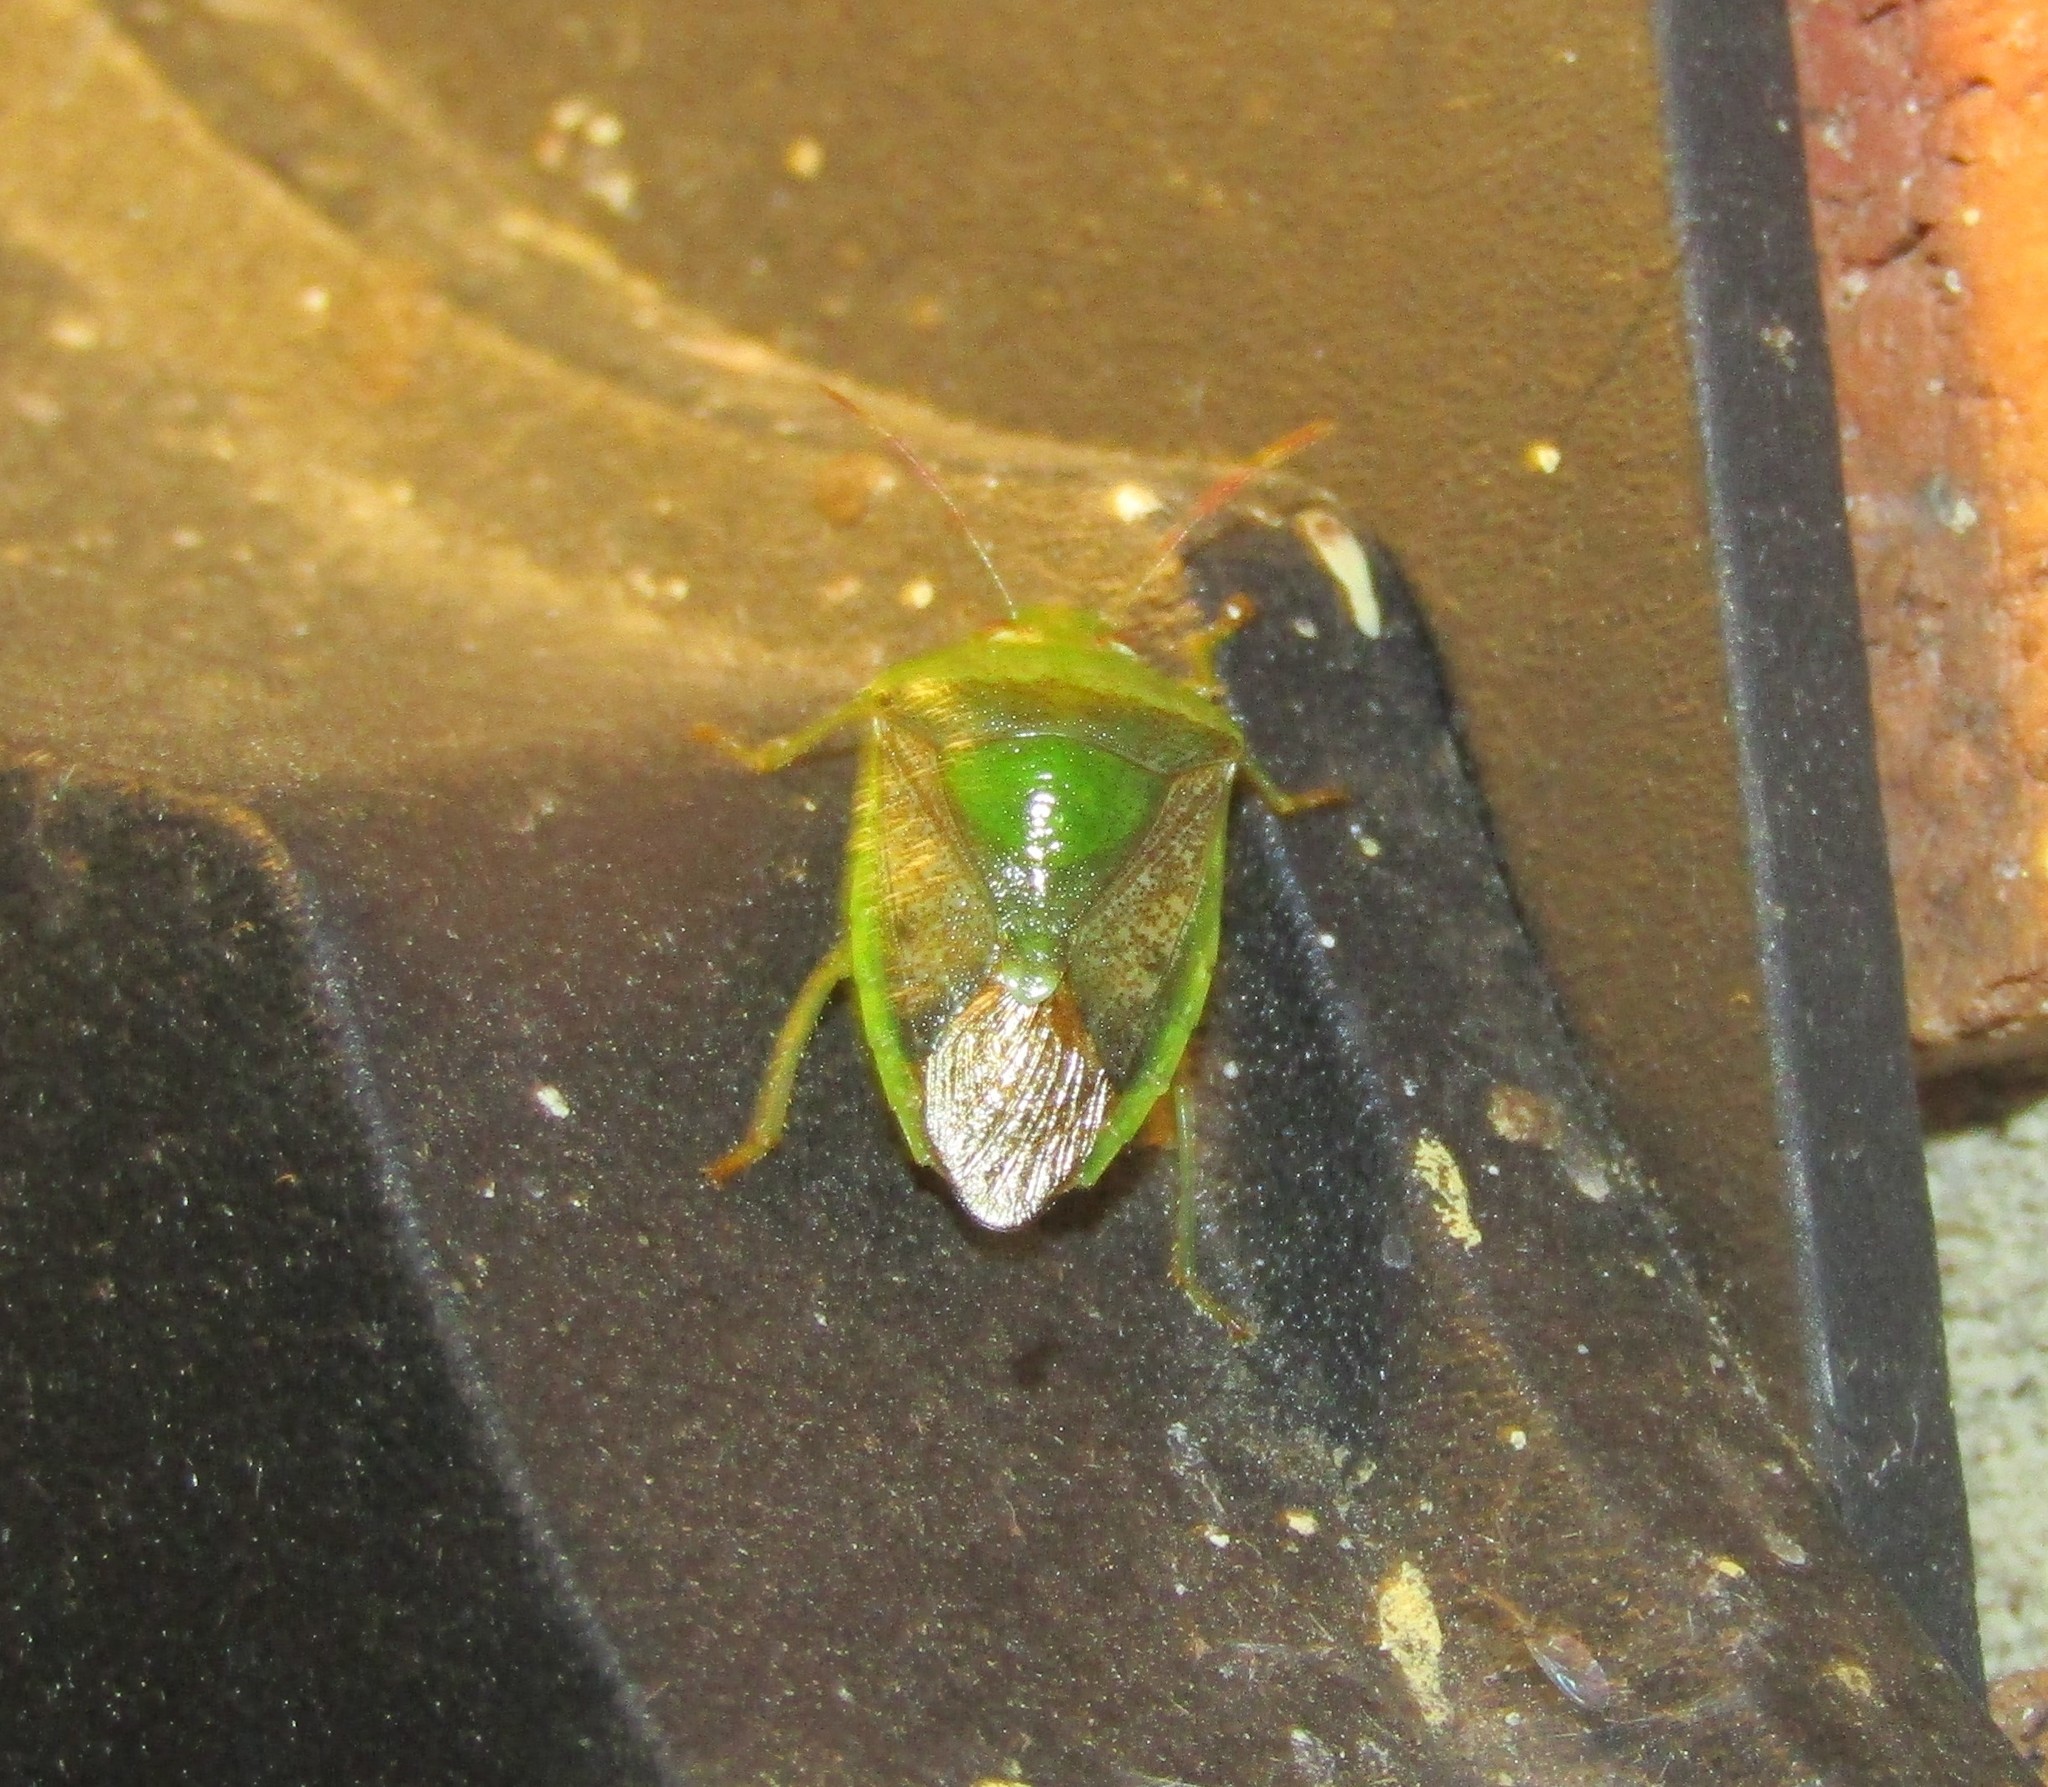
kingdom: Animalia
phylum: Arthropoda
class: Insecta
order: Hemiptera
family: Pentatomidae
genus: Banasa
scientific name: Banasa dimidiata
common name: Green burgundy stink bug
